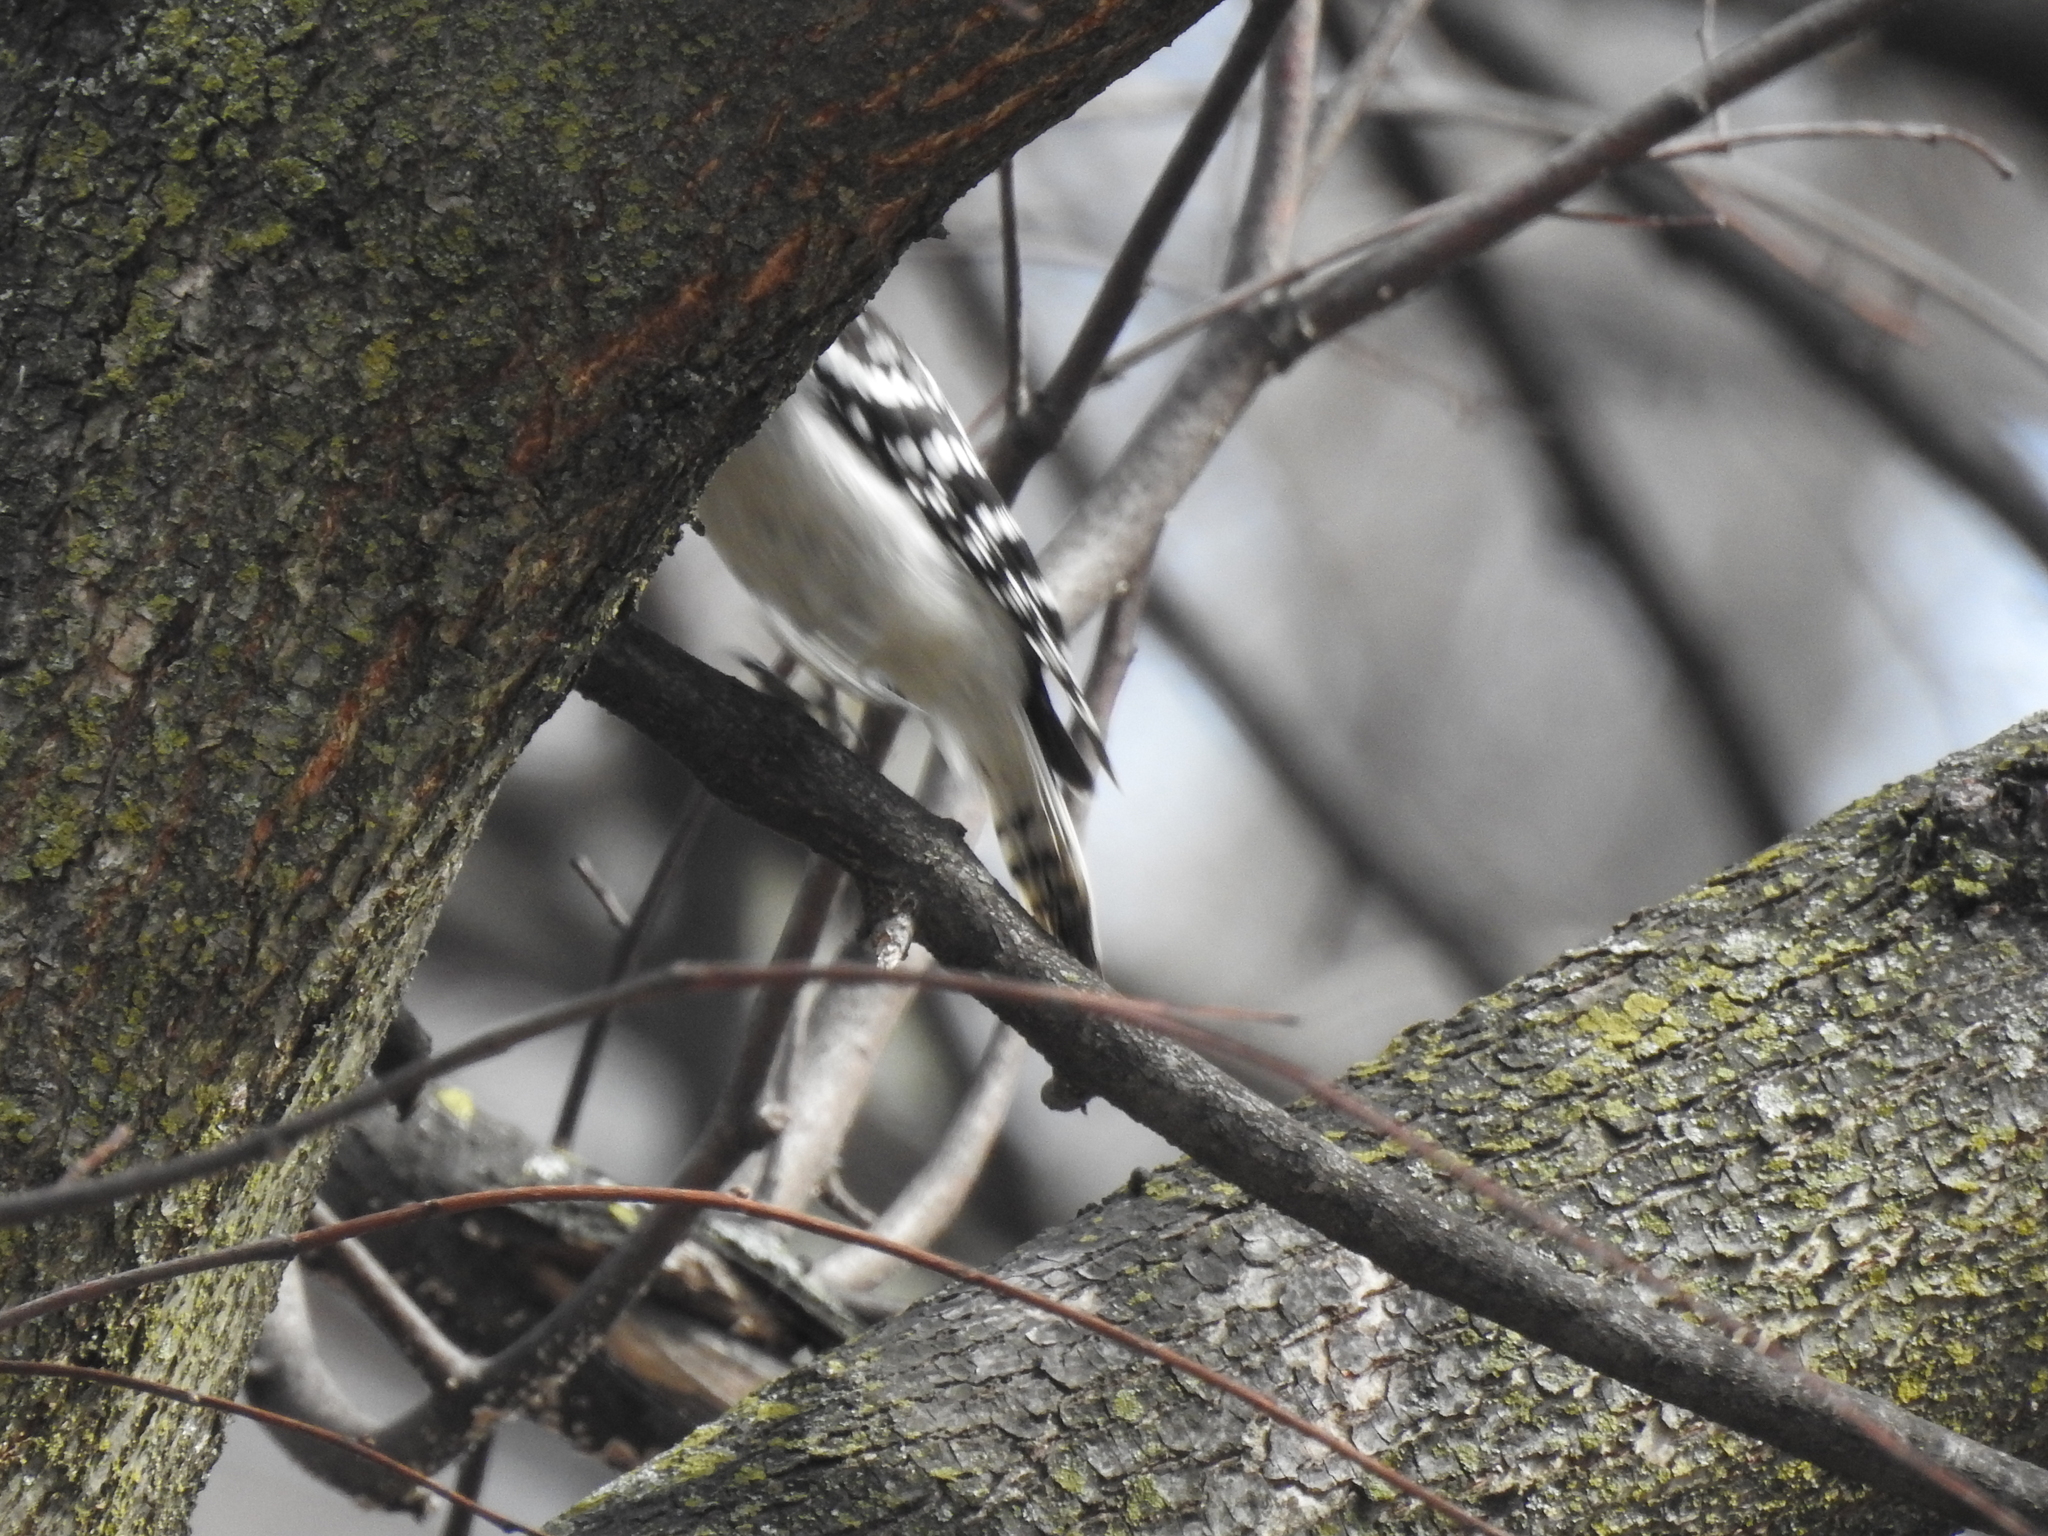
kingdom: Animalia
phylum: Chordata
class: Aves
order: Piciformes
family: Picidae
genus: Dryobates
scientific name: Dryobates pubescens
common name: Downy woodpecker
